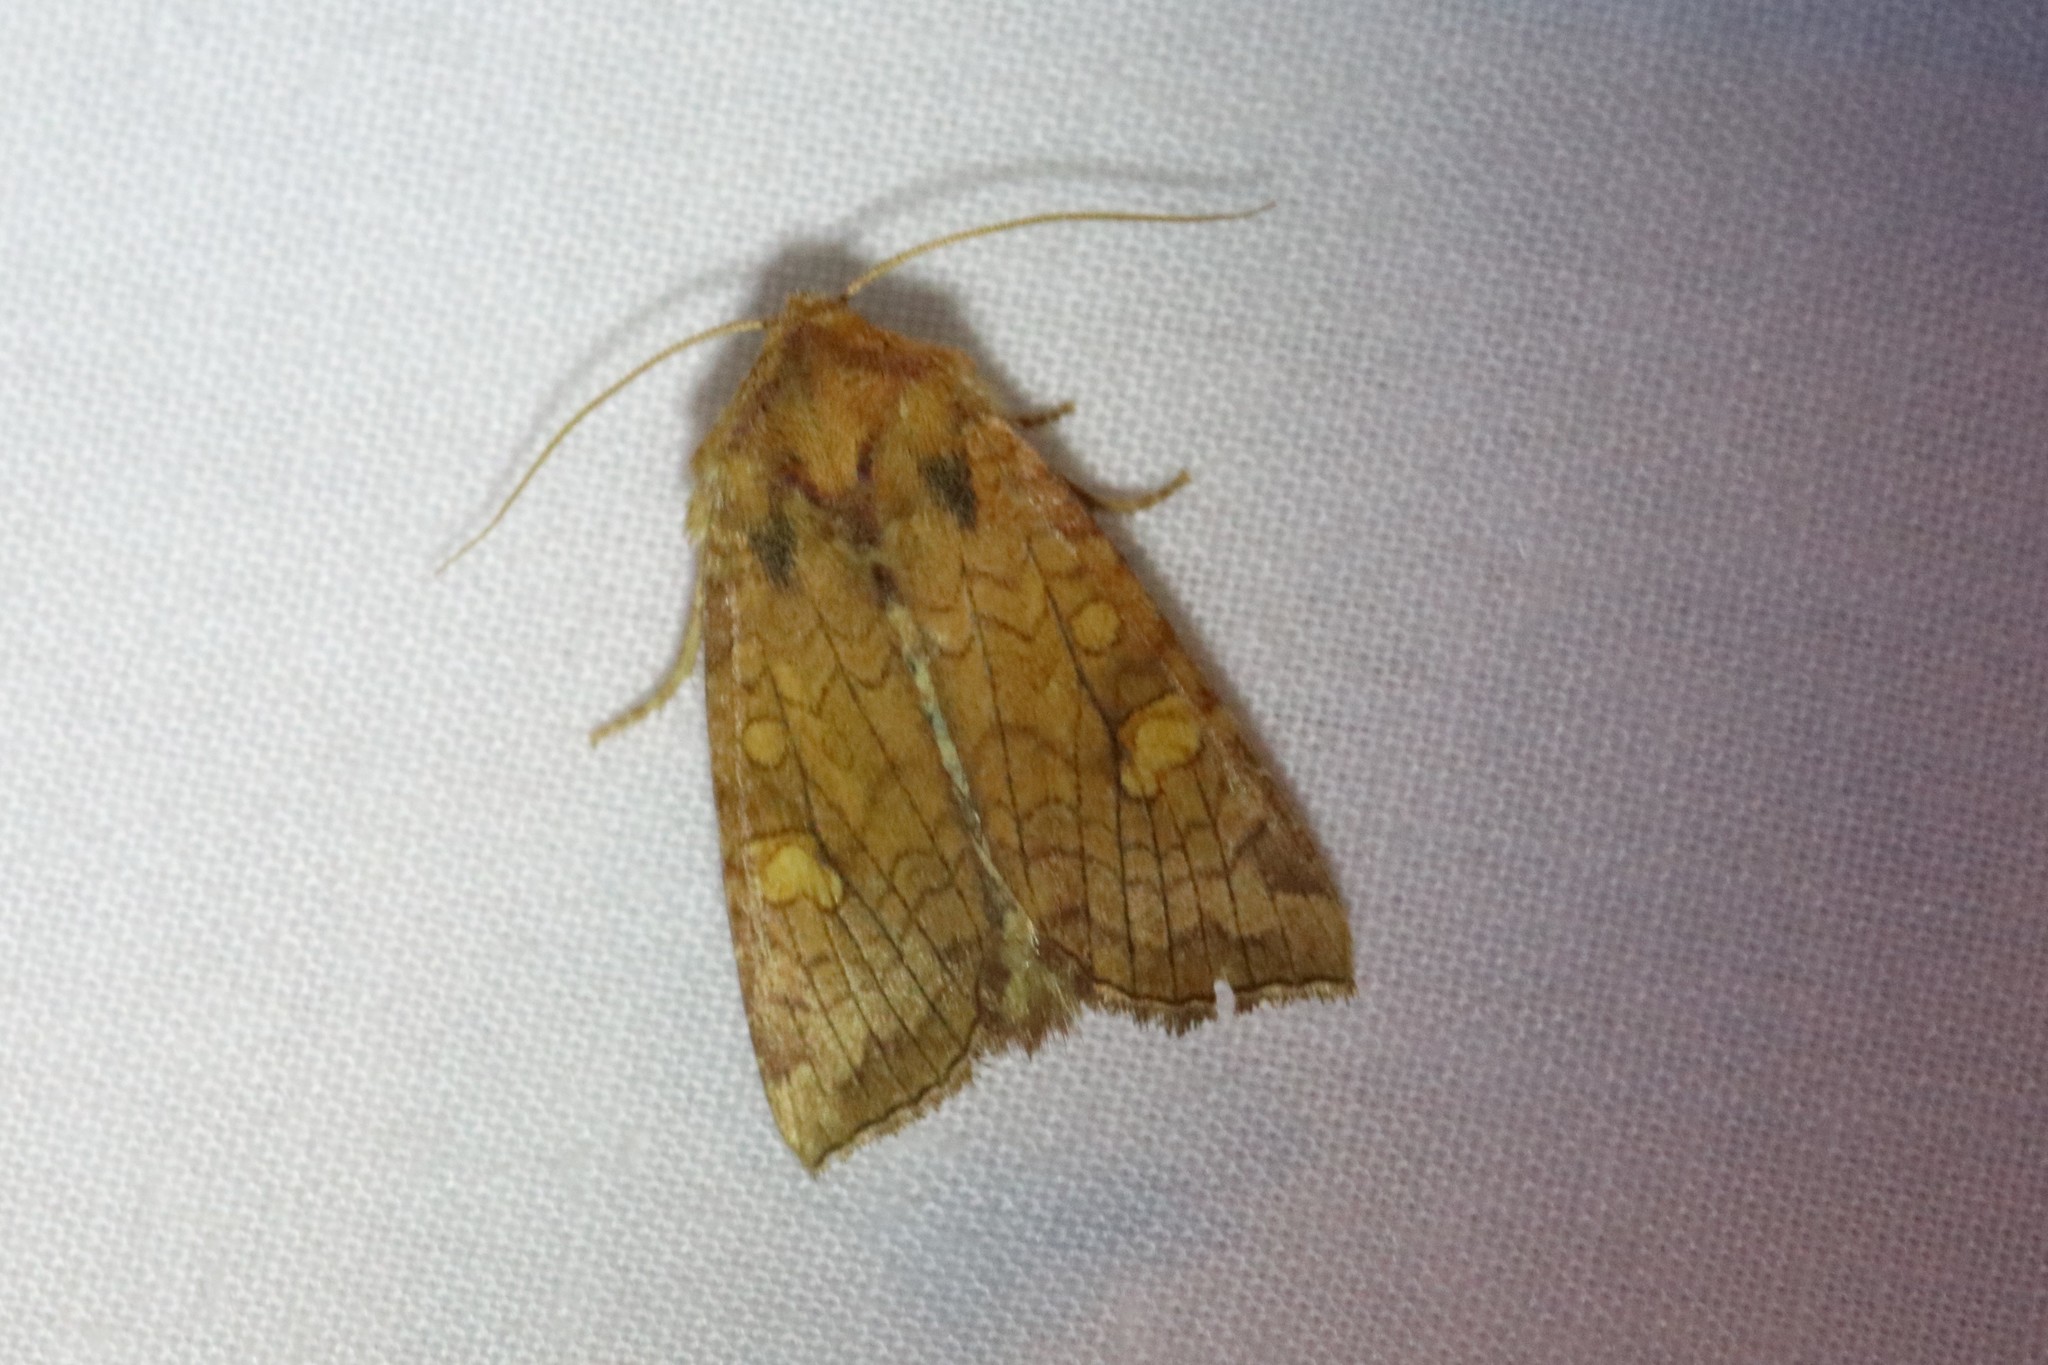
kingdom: Animalia
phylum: Arthropoda
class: Insecta
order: Lepidoptera
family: Noctuidae
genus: Amphipoea
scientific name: Amphipoea americana
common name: American ear moth
